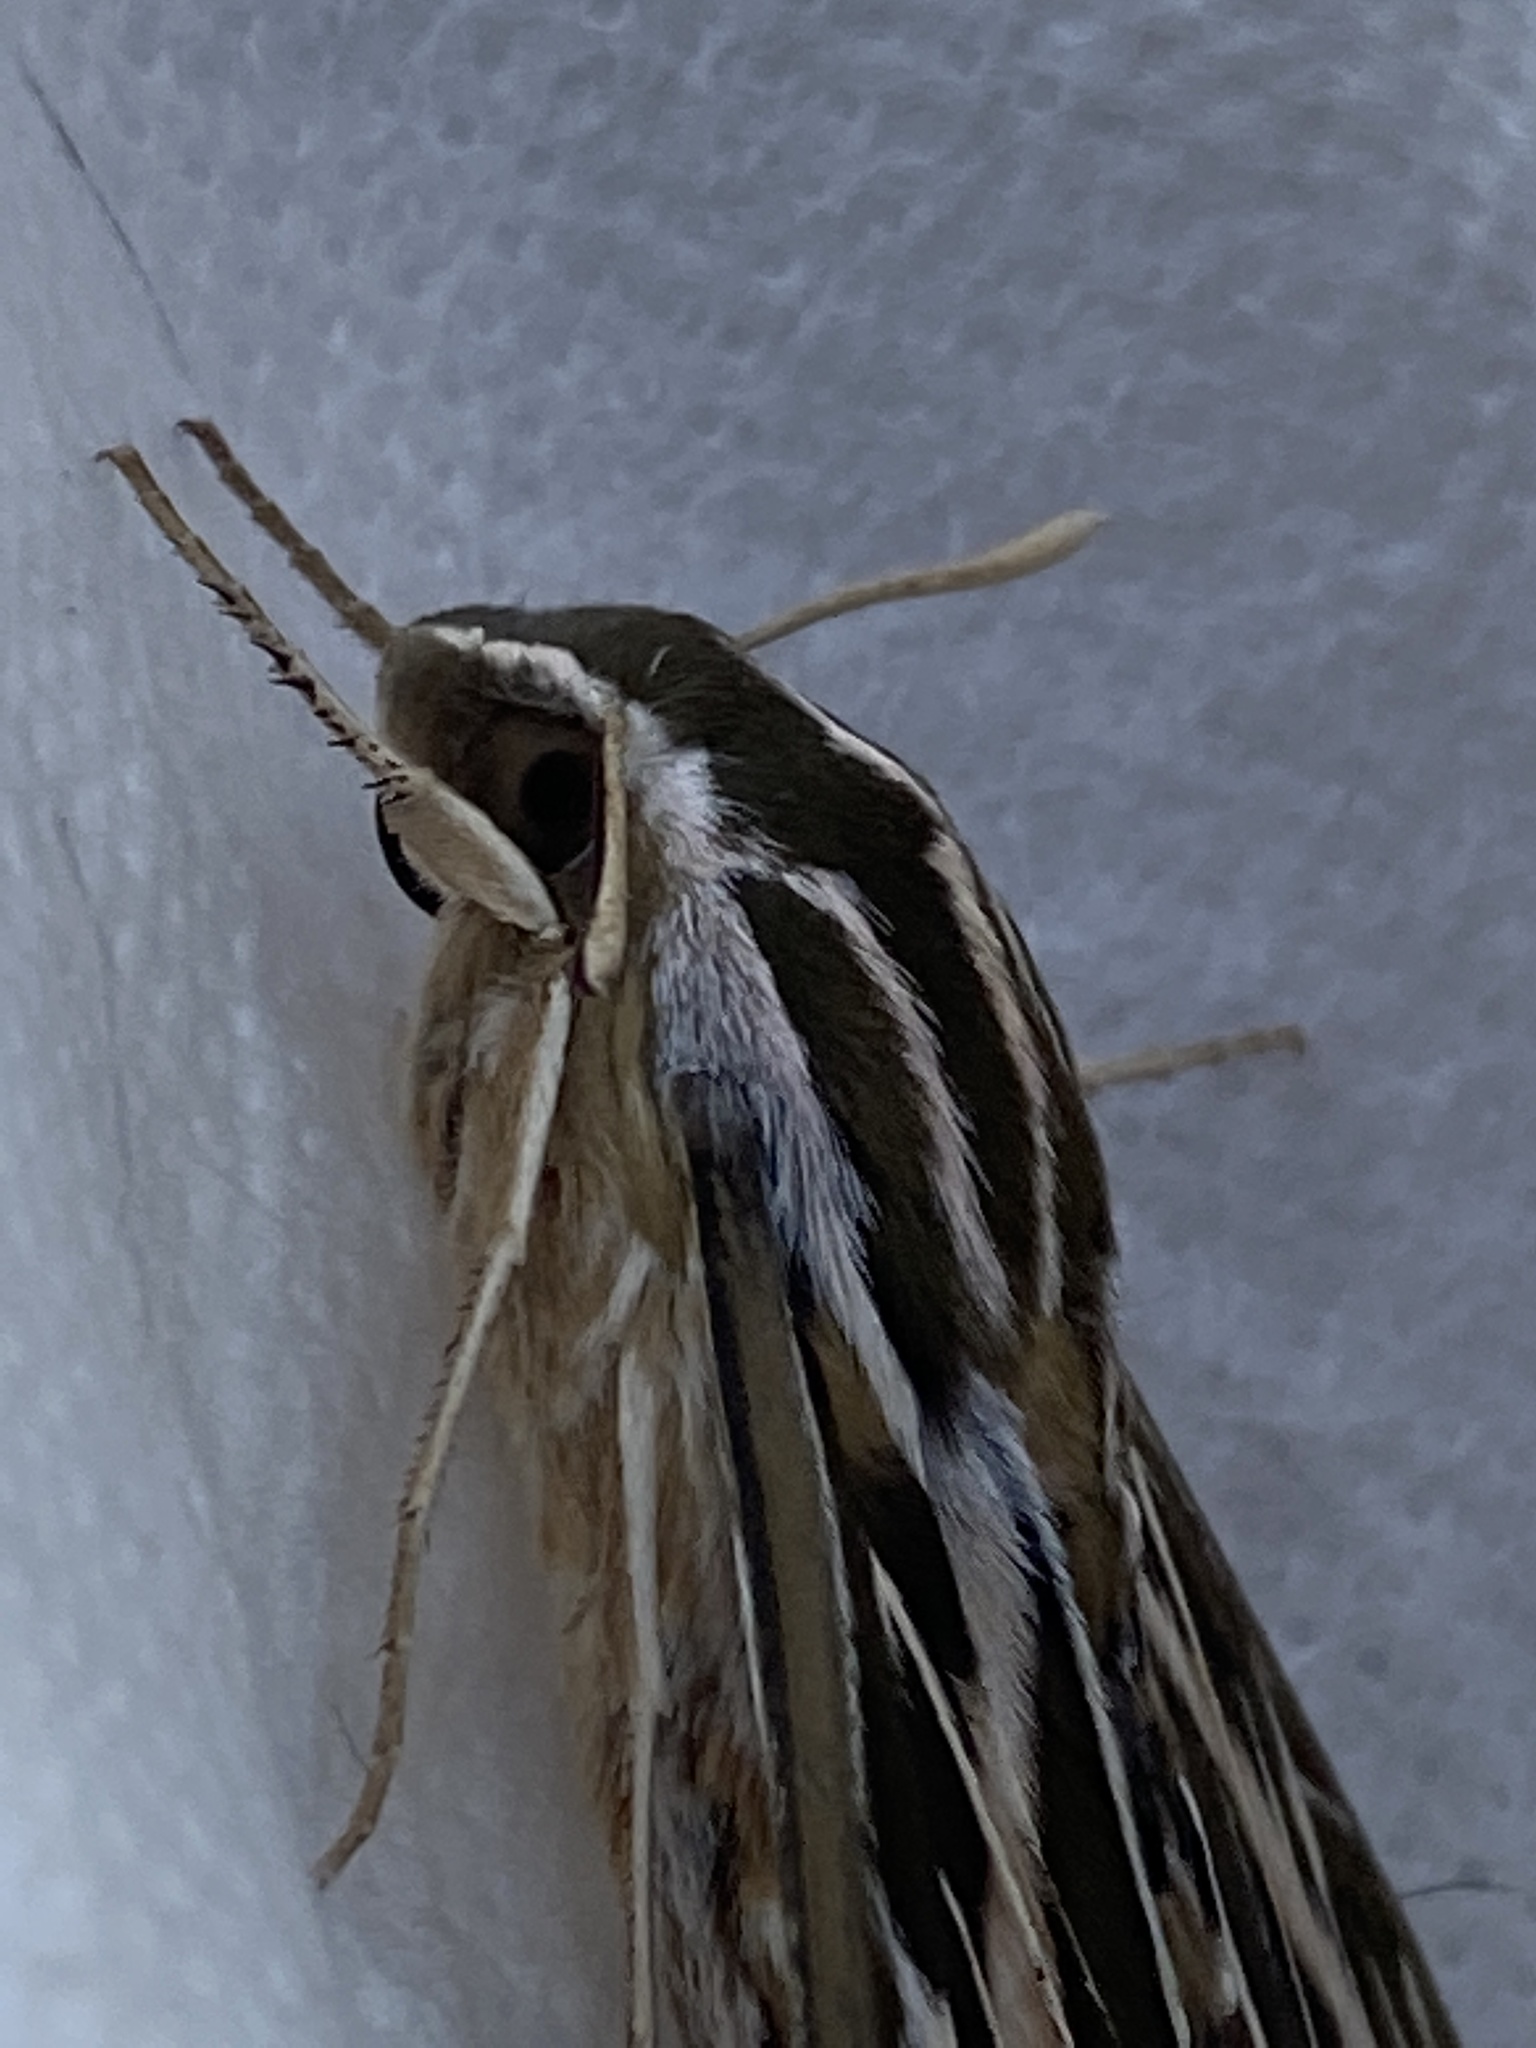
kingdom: Animalia
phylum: Arthropoda
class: Insecta
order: Lepidoptera
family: Sphingidae
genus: Hyles
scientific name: Hyles lineata
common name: White-lined sphinx
